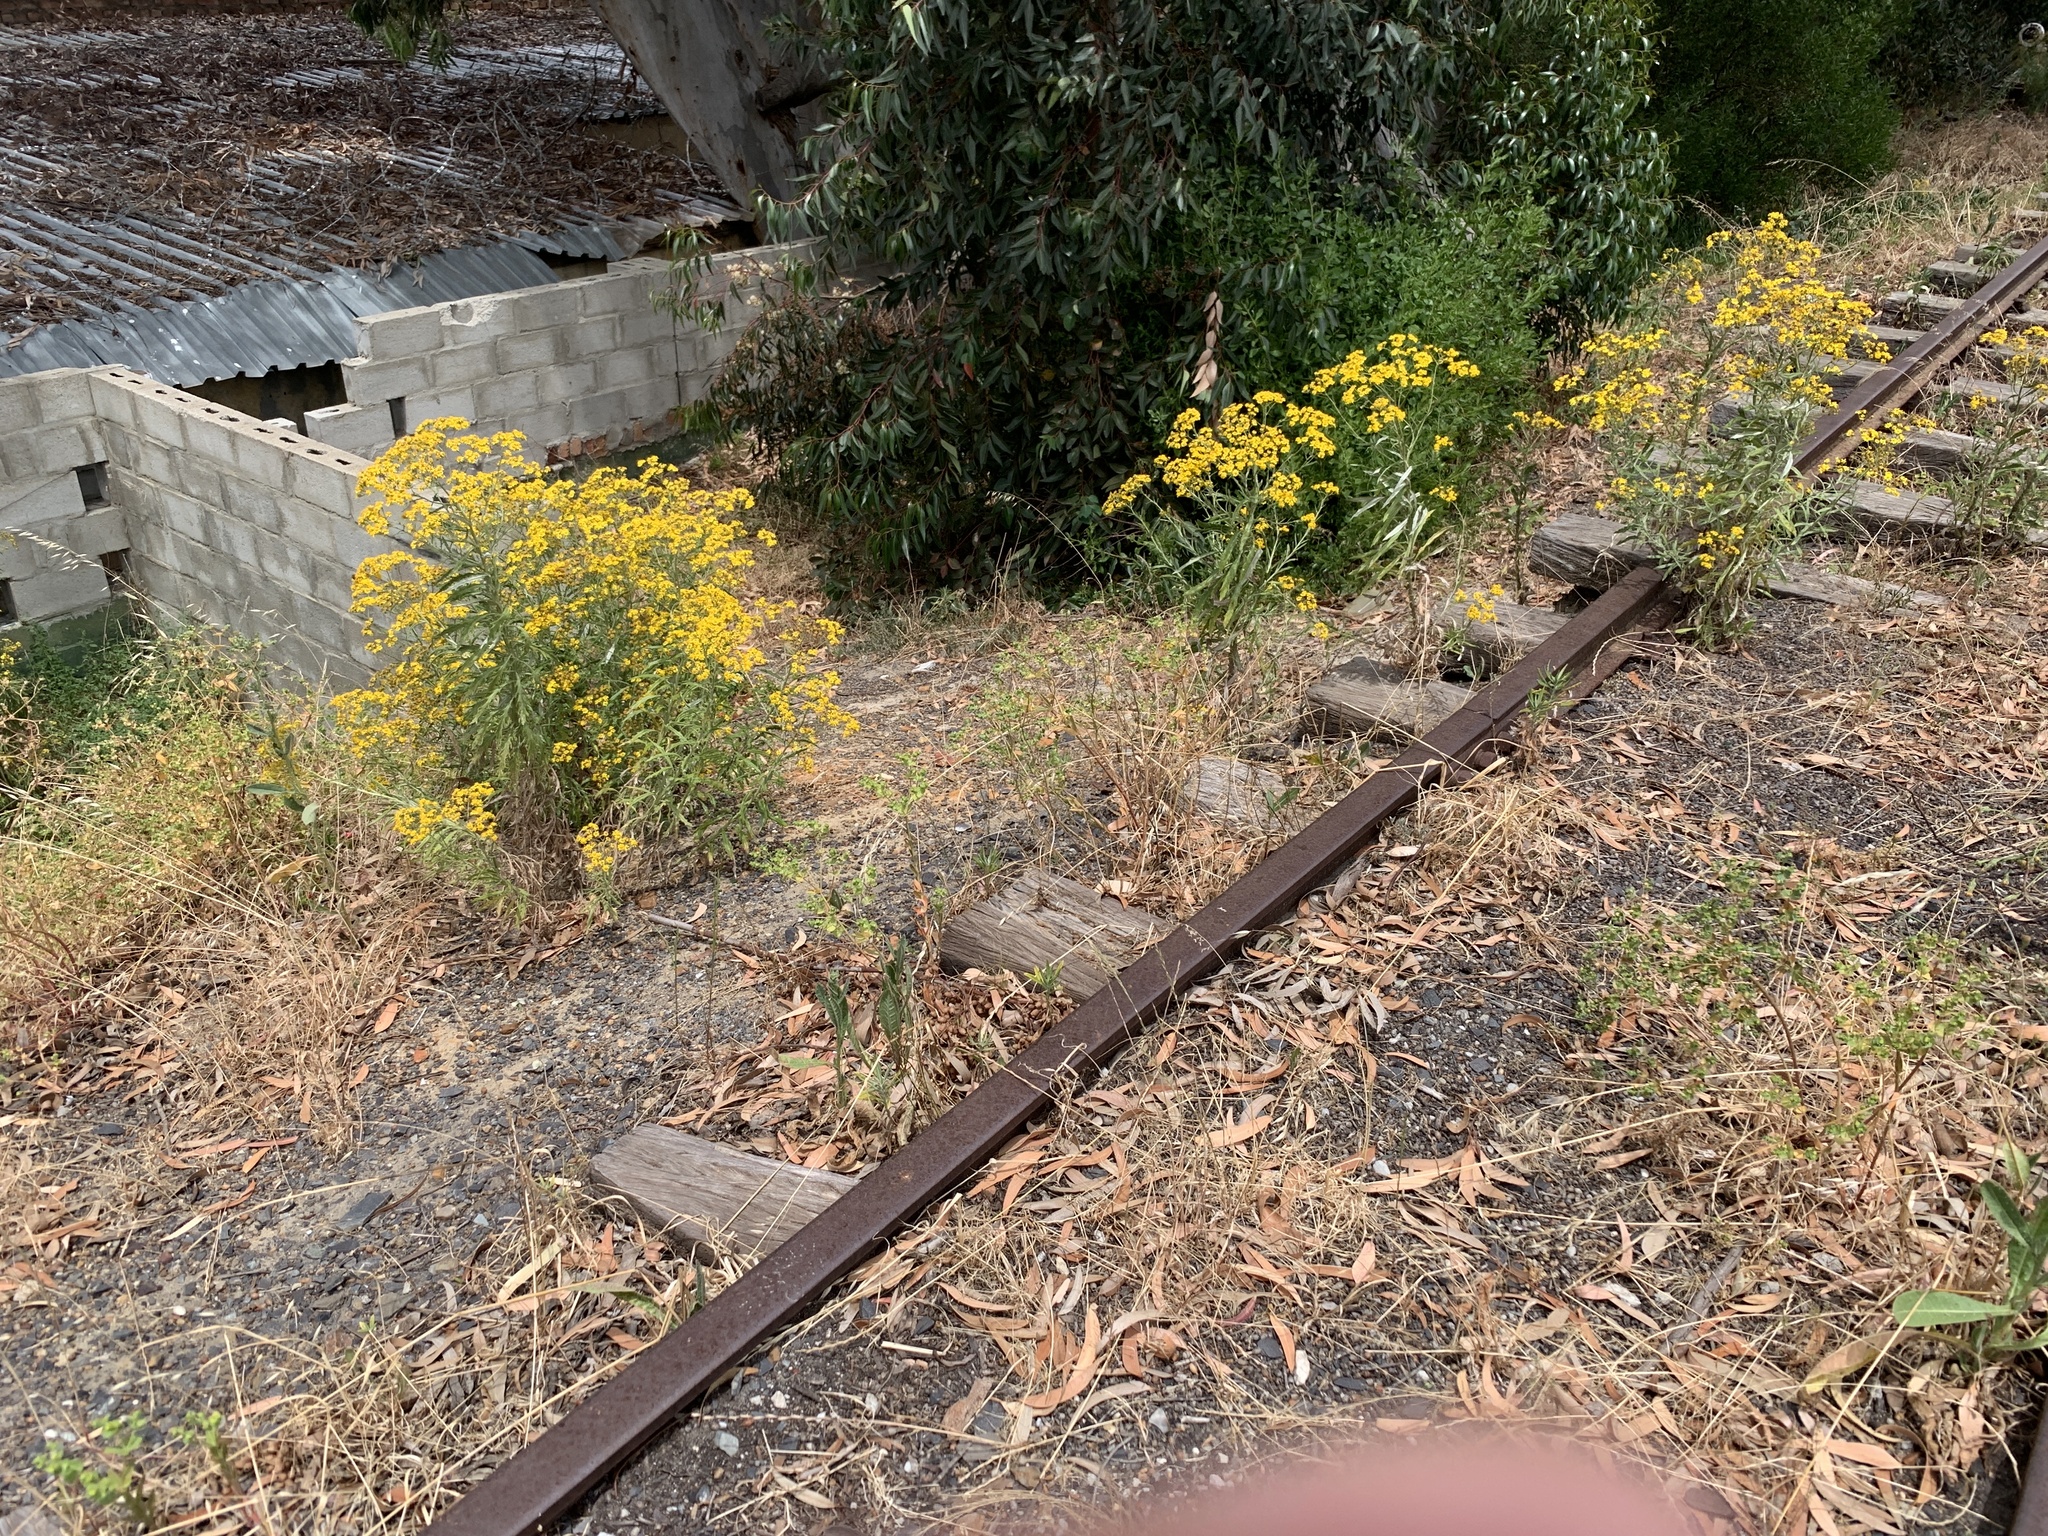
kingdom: Plantae
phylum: Tracheophyta
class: Magnoliopsida
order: Asterales
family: Asteraceae
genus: Senecio
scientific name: Senecio pterophorus
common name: Shoddy ragwort
